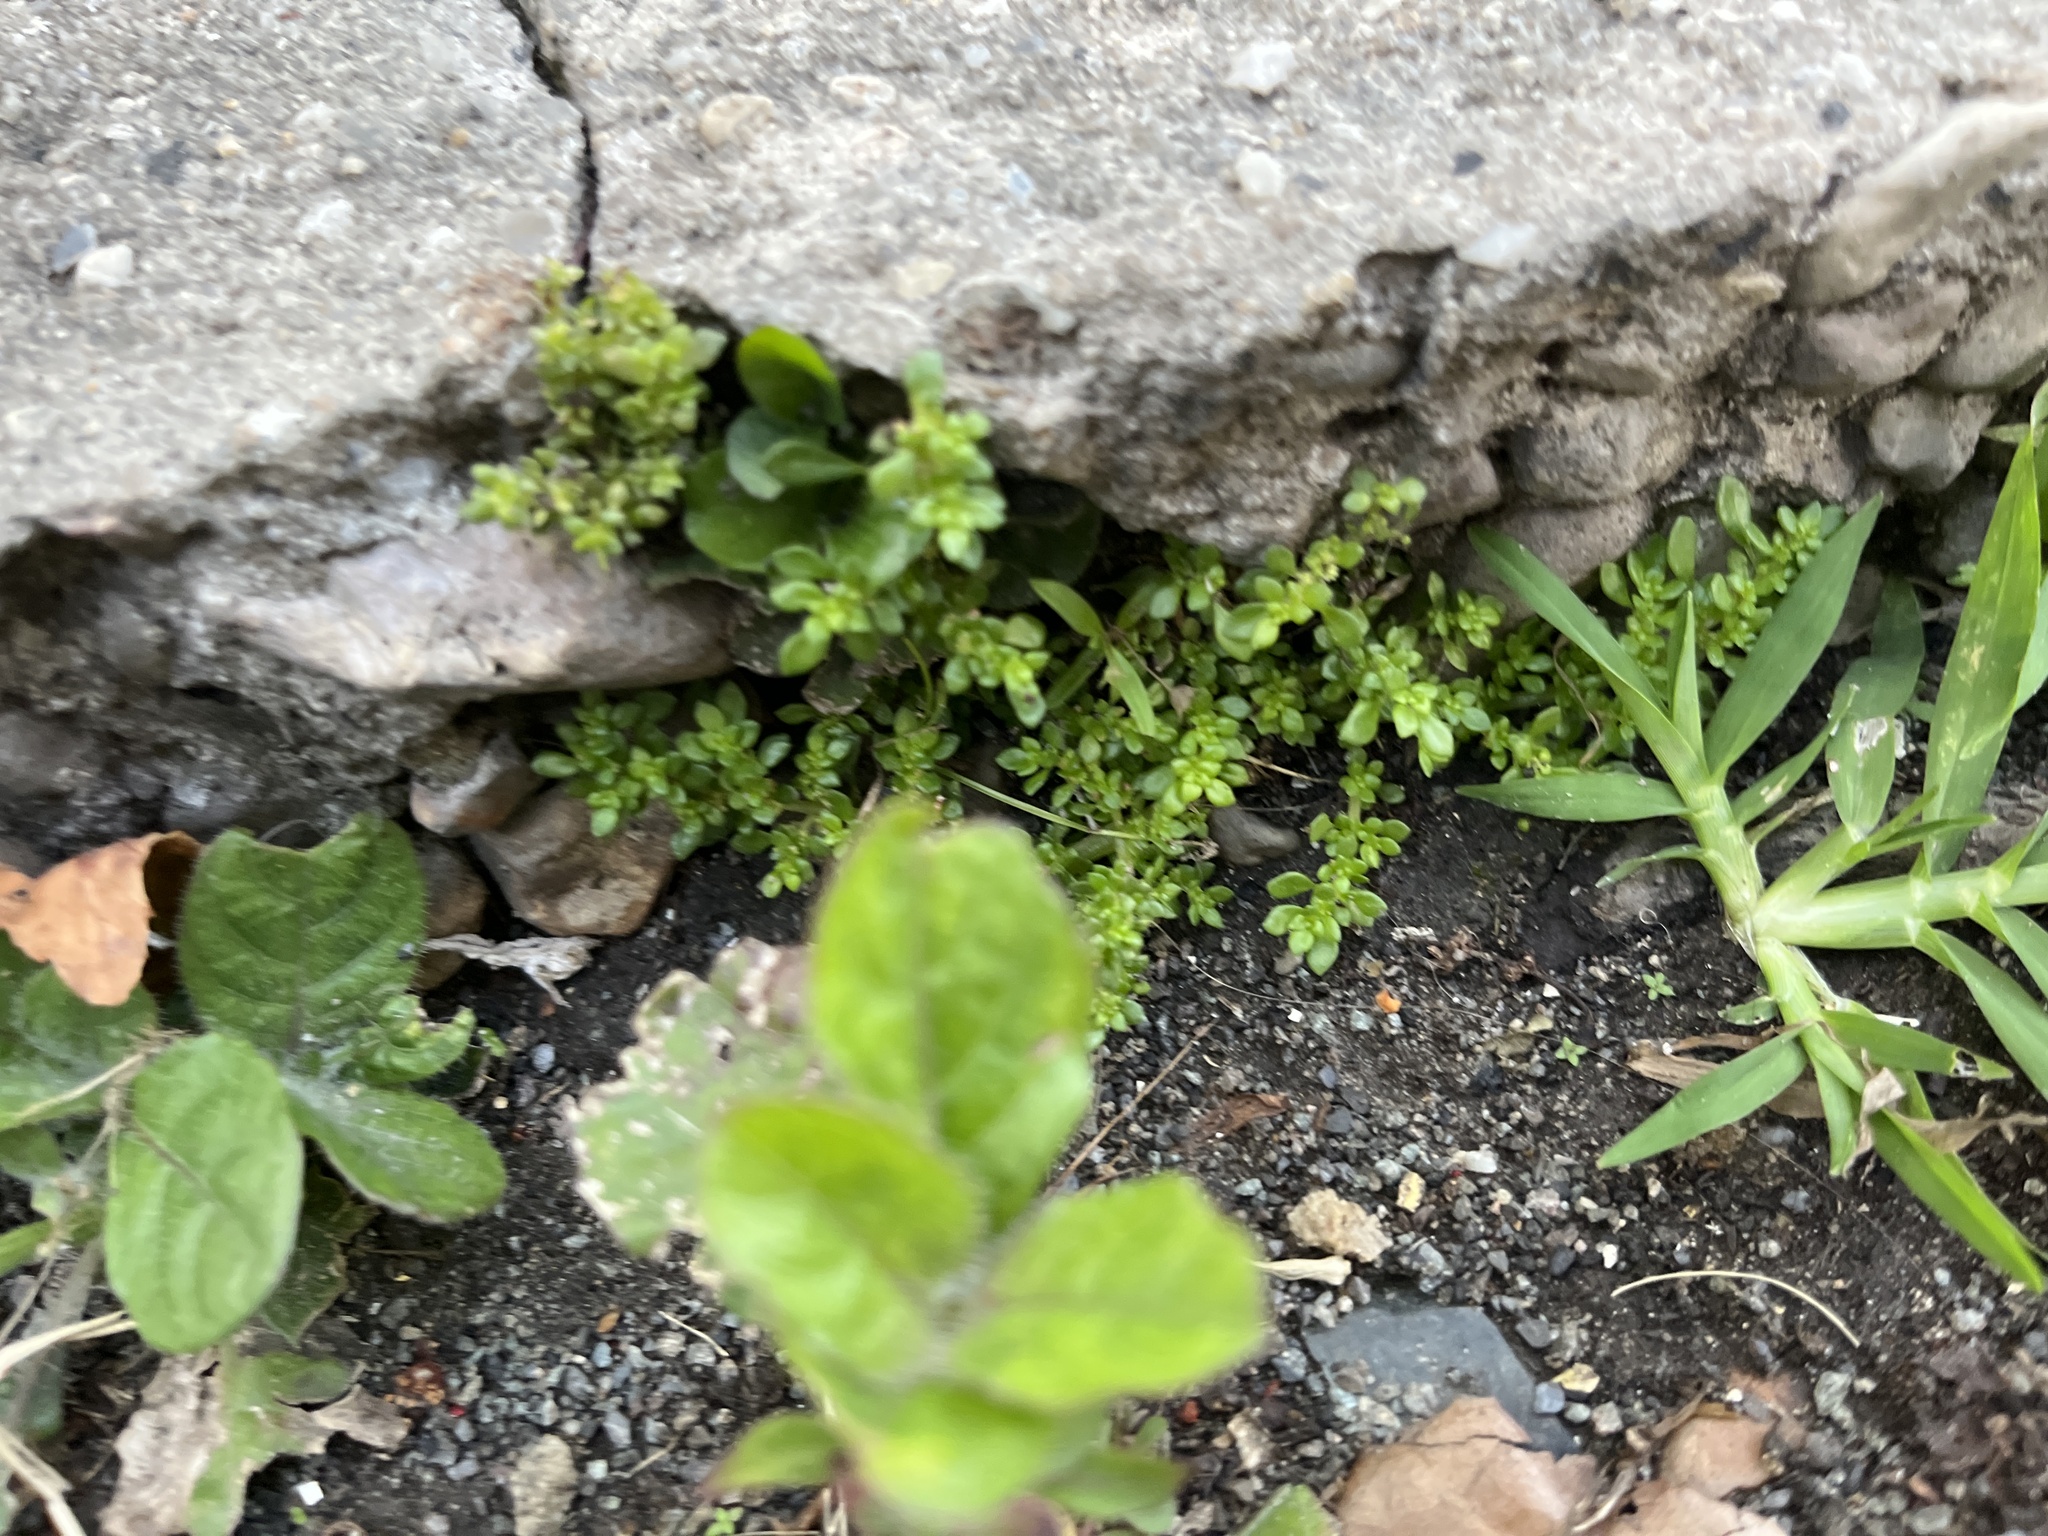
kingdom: Plantae
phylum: Tracheophyta
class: Magnoliopsida
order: Rosales
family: Urticaceae
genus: Pilea
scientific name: Pilea microphylla
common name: Artillery-plant
